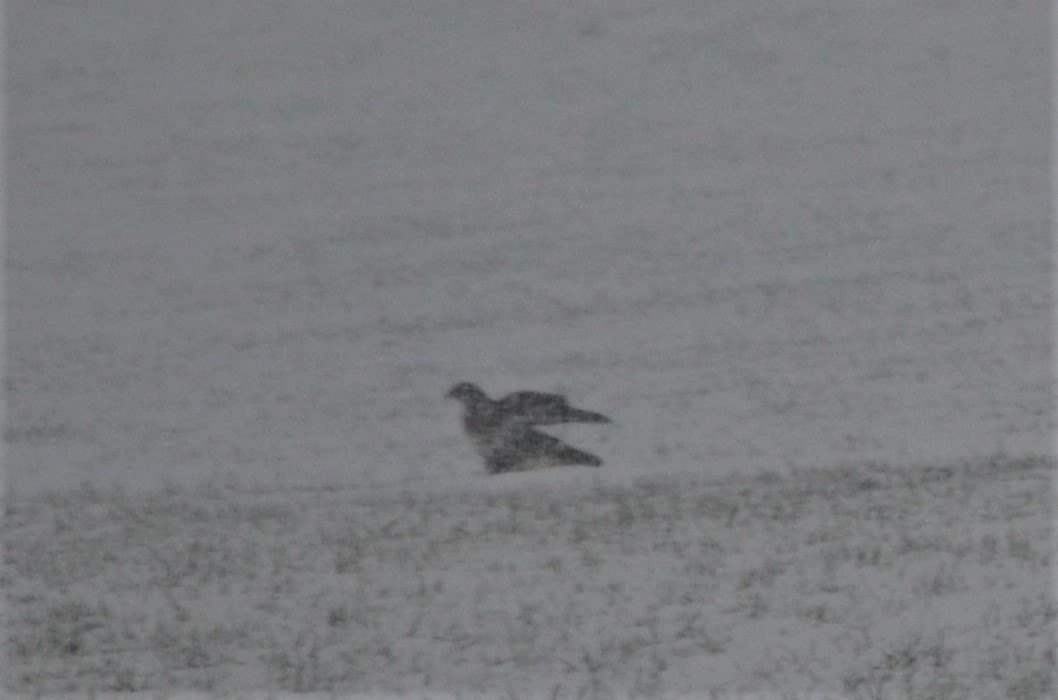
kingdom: Animalia
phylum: Chordata
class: Aves
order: Accipitriformes
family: Accipitridae
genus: Buteo
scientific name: Buteo buteo
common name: Common buzzard
